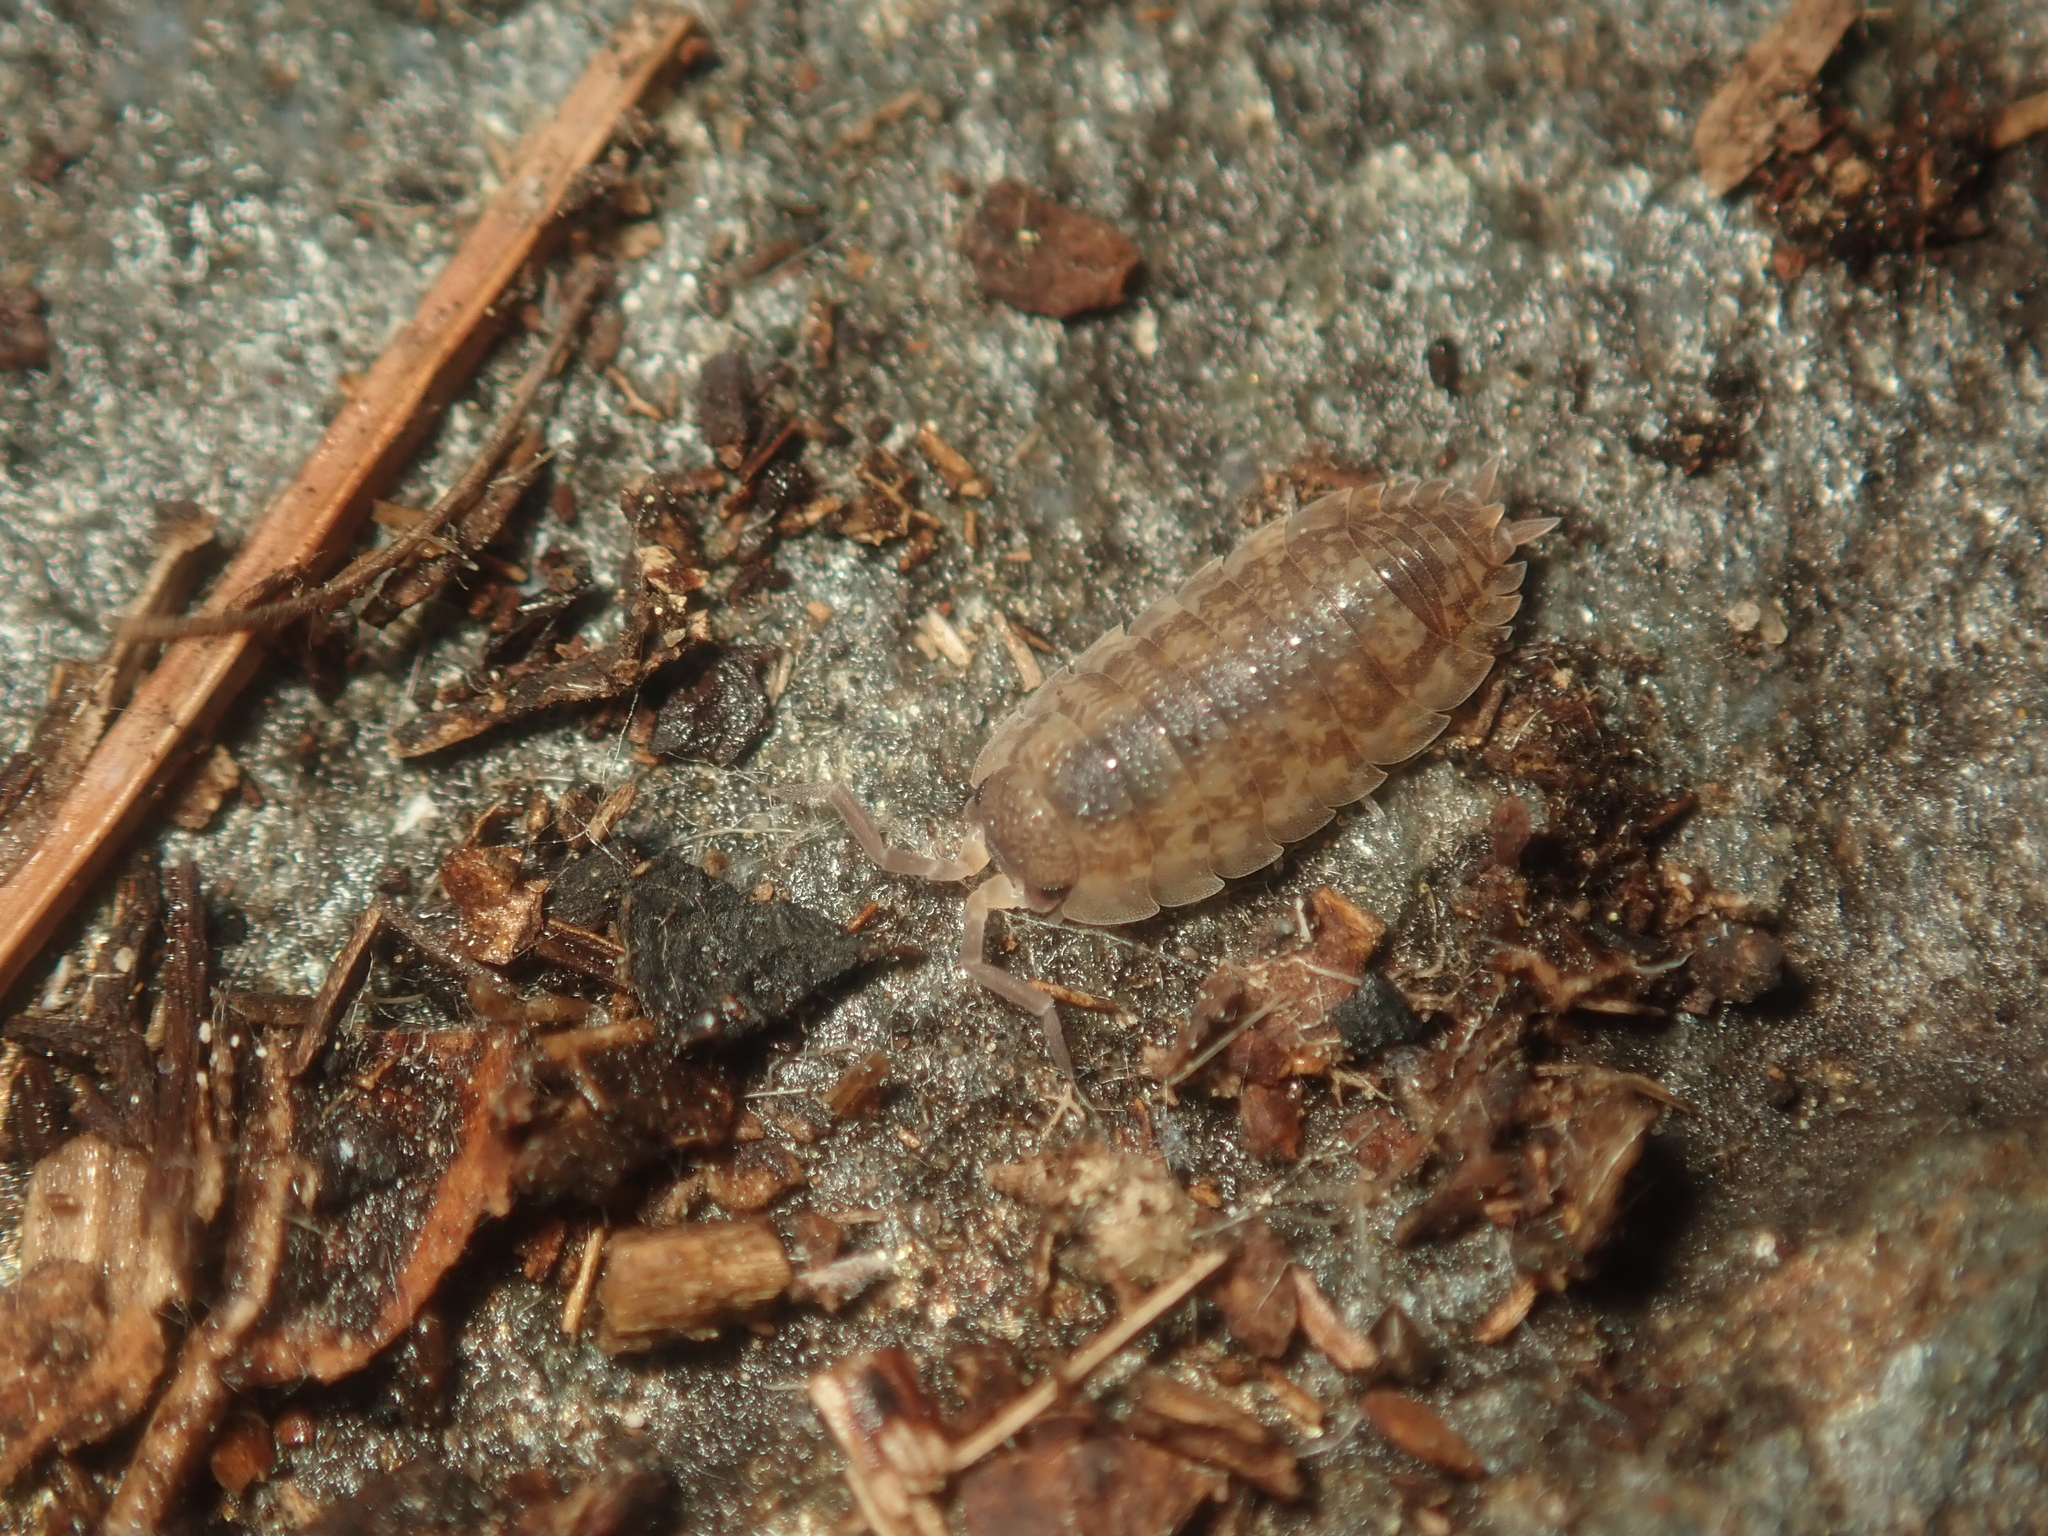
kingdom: Animalia
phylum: Arthropoda
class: Malacostraca
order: Isopoda
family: Porcellionidae
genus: Porcellio
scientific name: Porcellio scaber
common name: Common rough woodlouse
